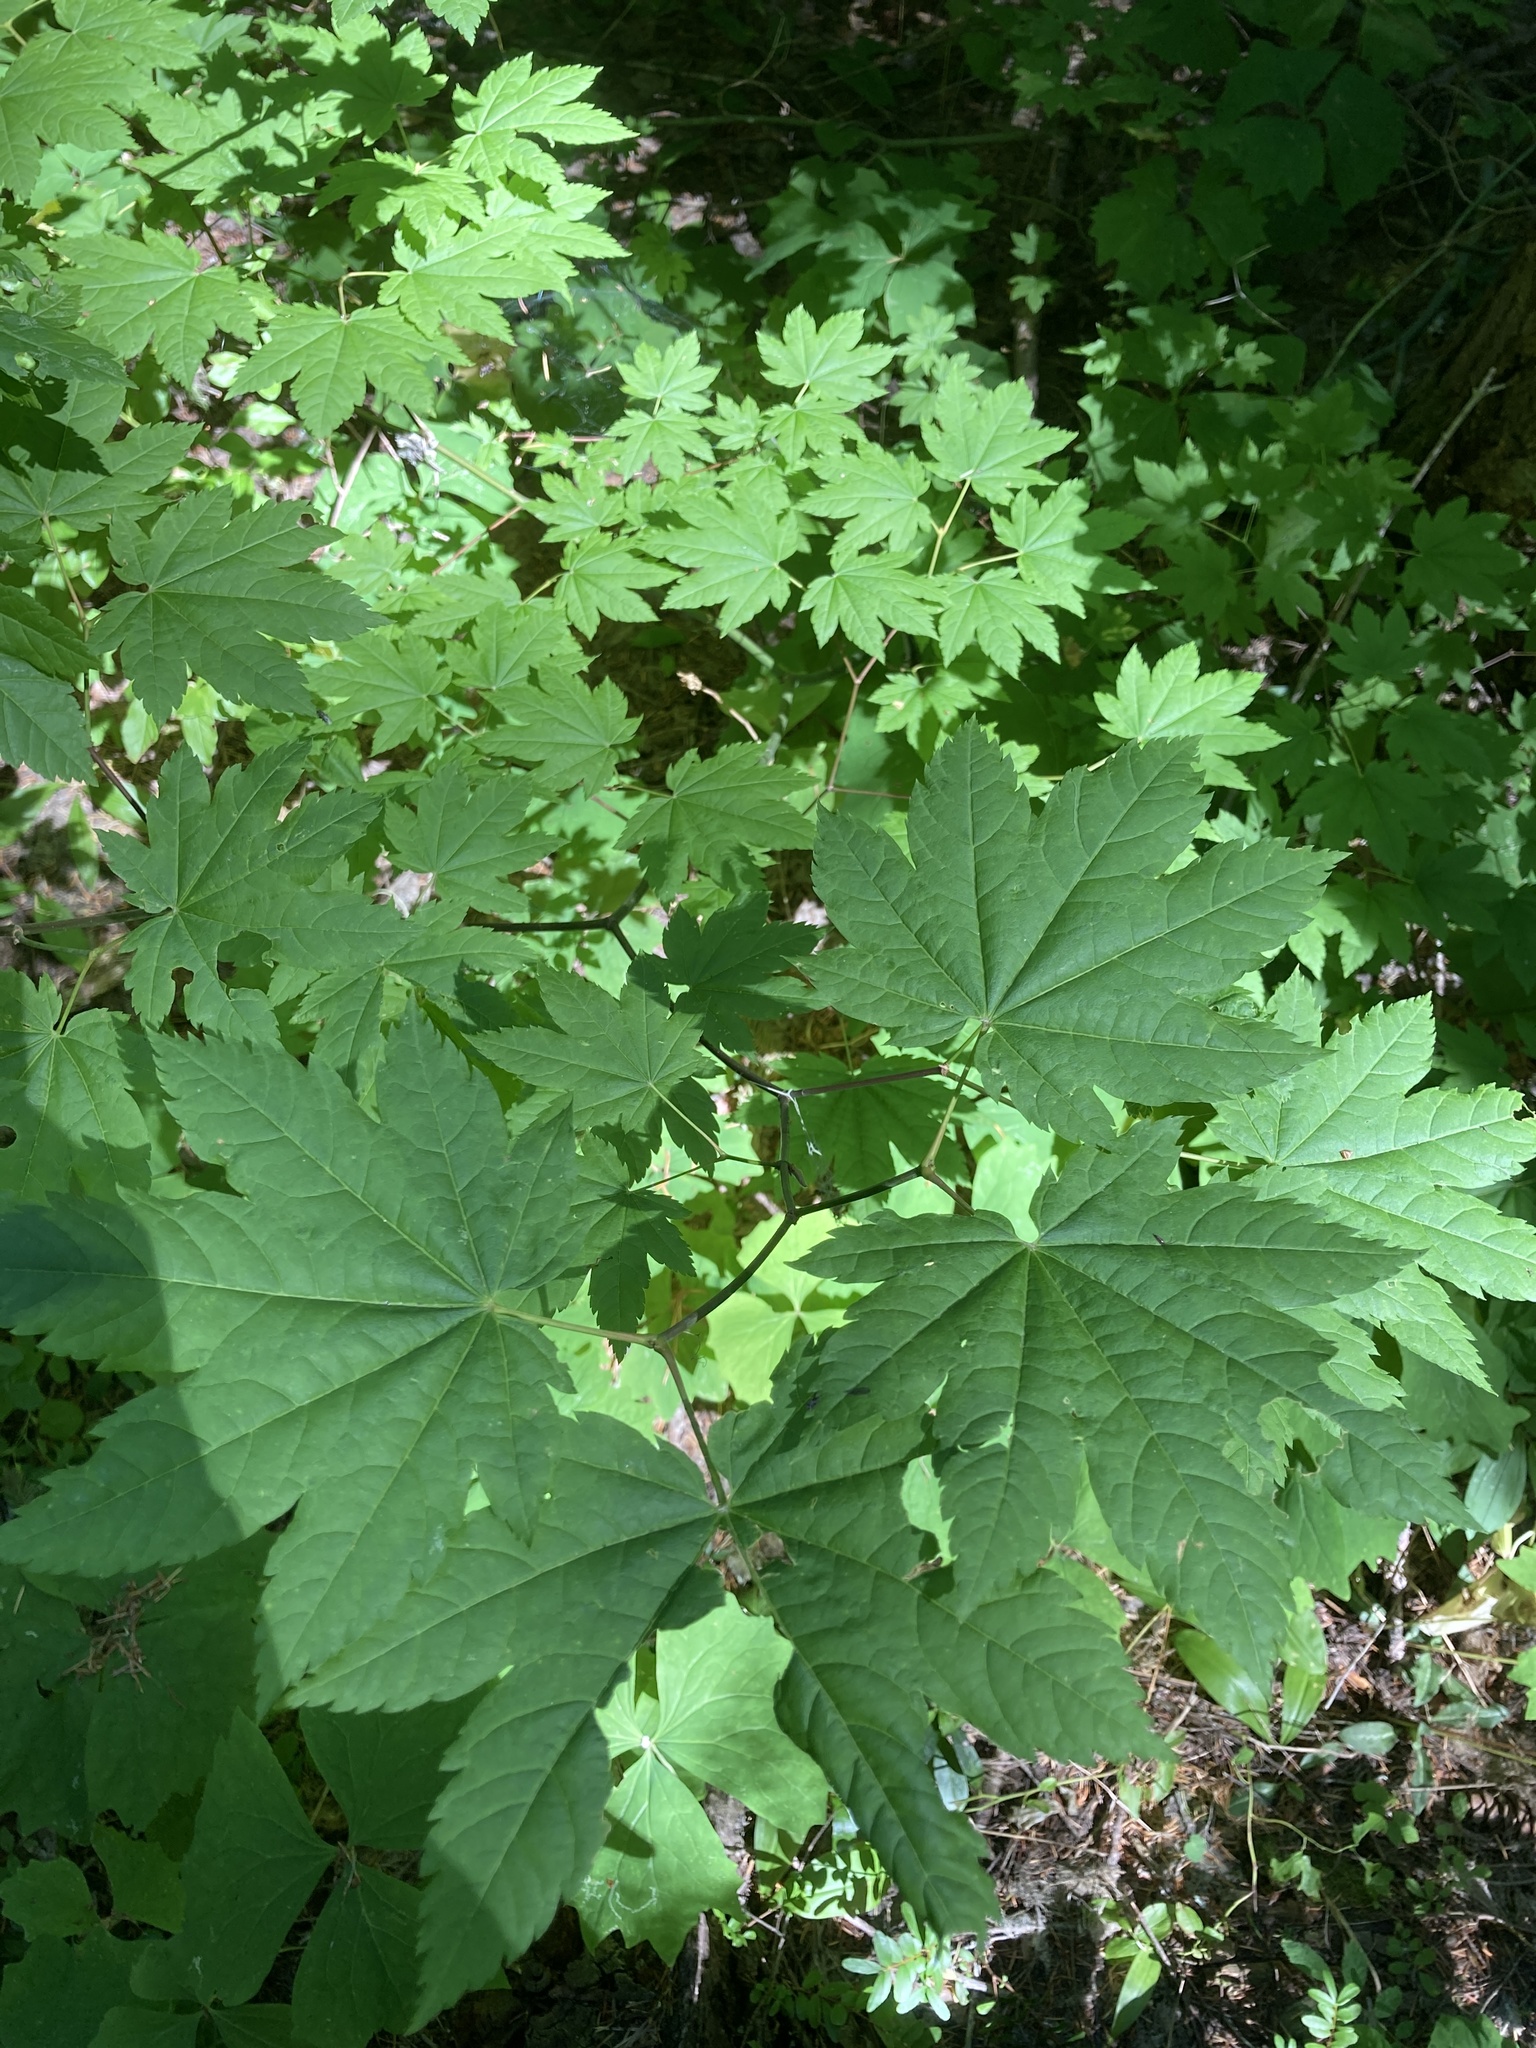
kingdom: Plantae
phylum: Tracheophyta
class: Magnoliopsida
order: Sapindales
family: Sapindaceae
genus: Acer
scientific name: Acer circinatum
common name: Vine maple
